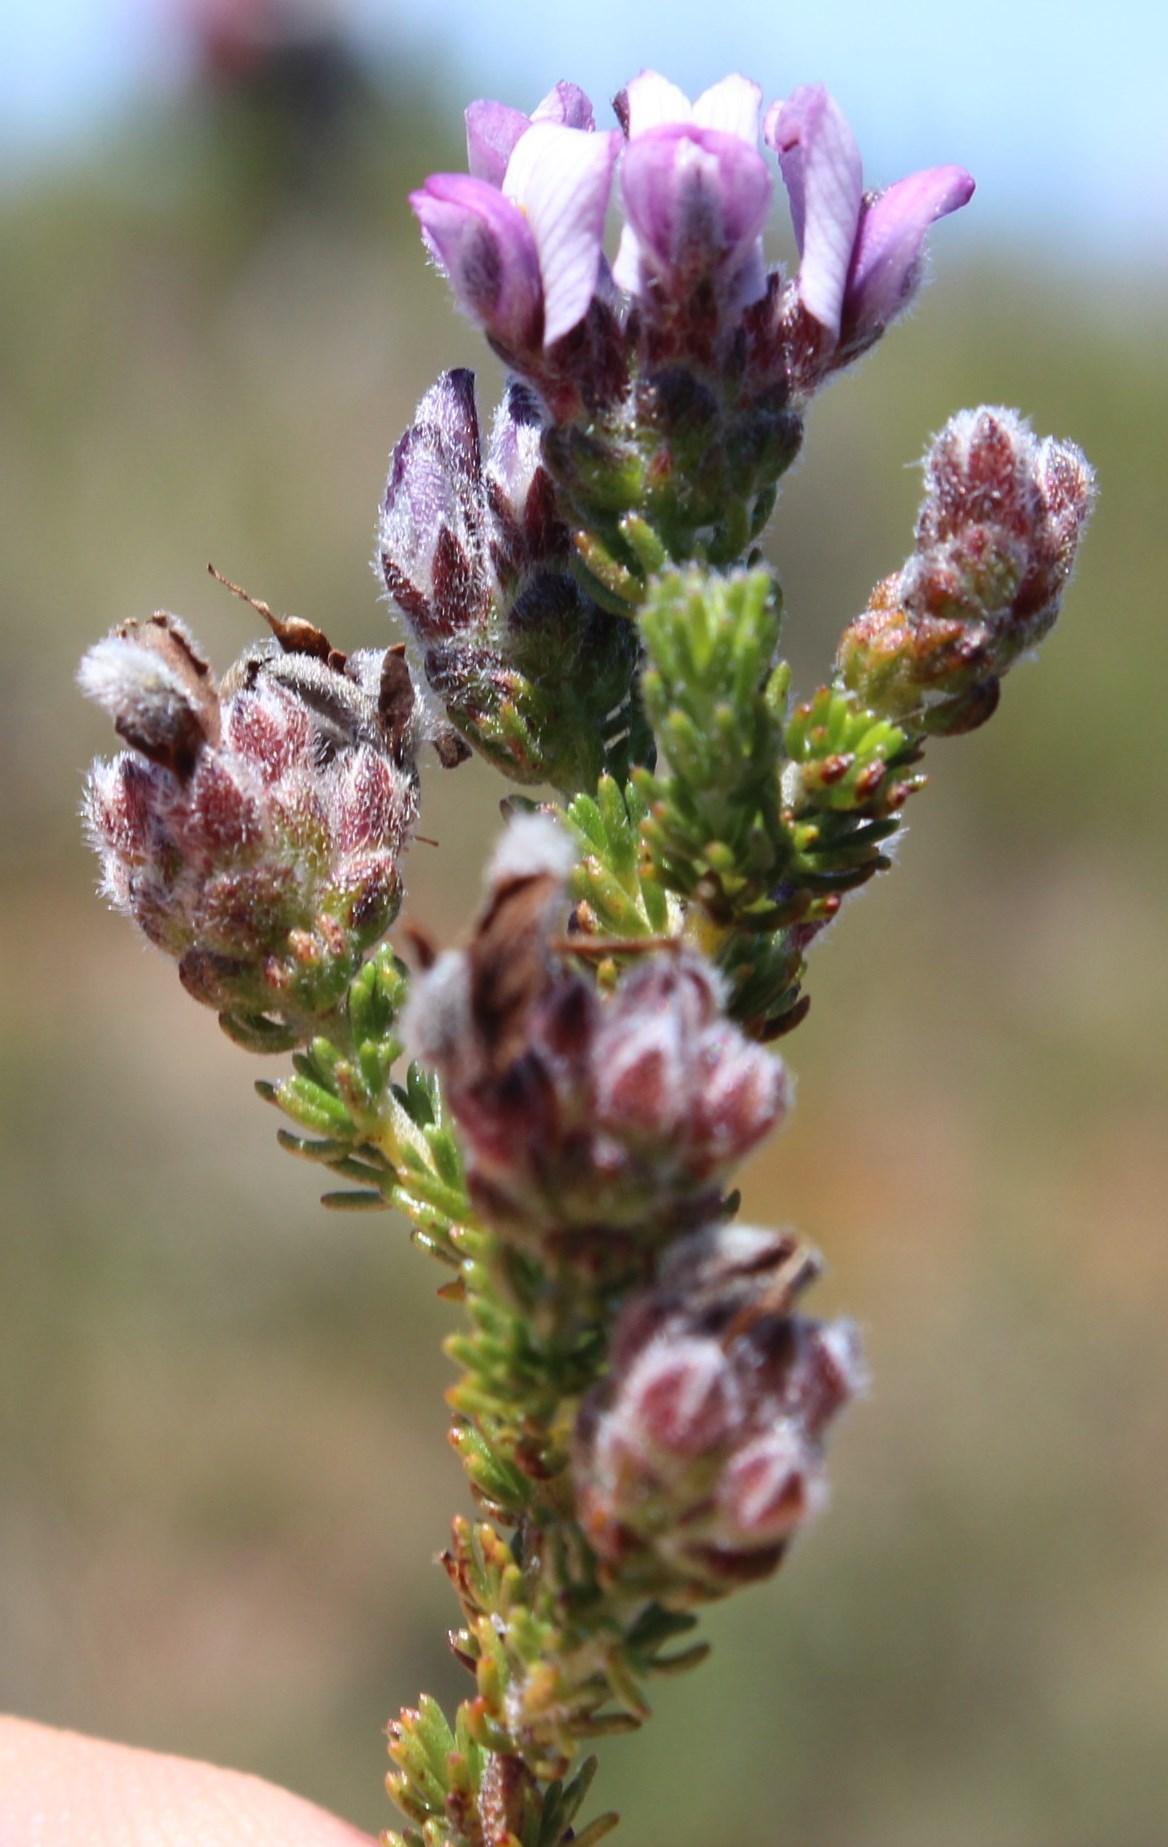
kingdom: Plantae
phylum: Tracheophyta
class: Magnoliopsida
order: Fabales
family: Fabaceae
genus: Aspalathus
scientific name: Aspalathus nigra
